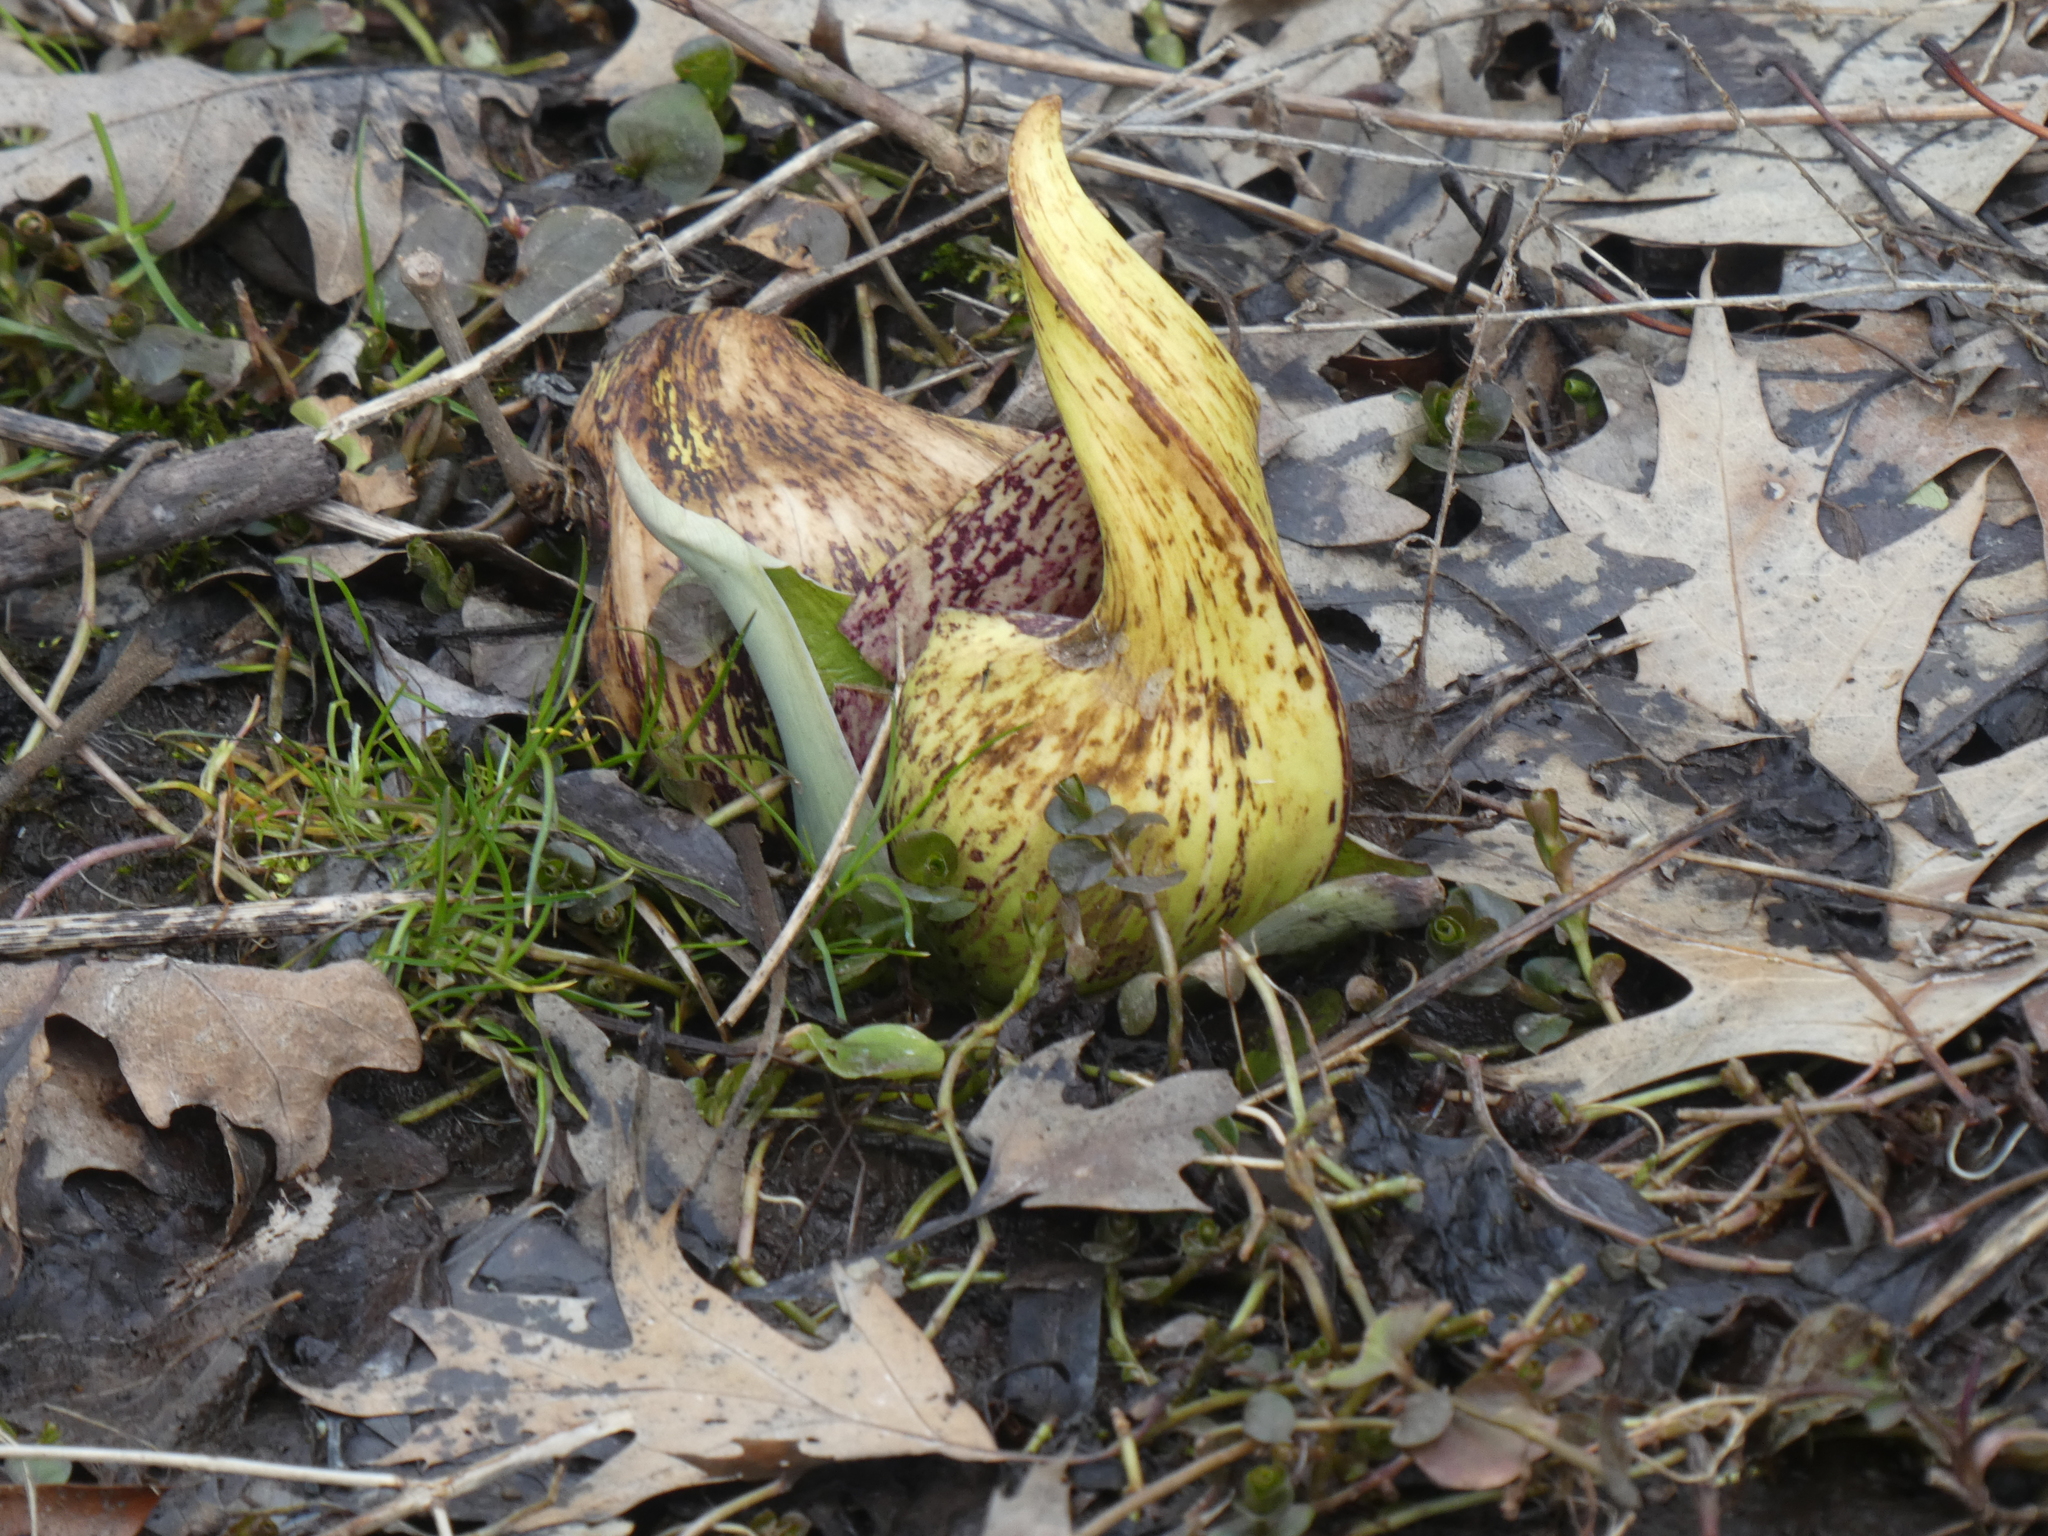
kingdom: Plantae
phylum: Tracheophyta
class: Liliopsida
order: Alismatales
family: Araceae
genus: Symplocarpus
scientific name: Symplocarpus foetidus
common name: Eastern skunk cabbage
